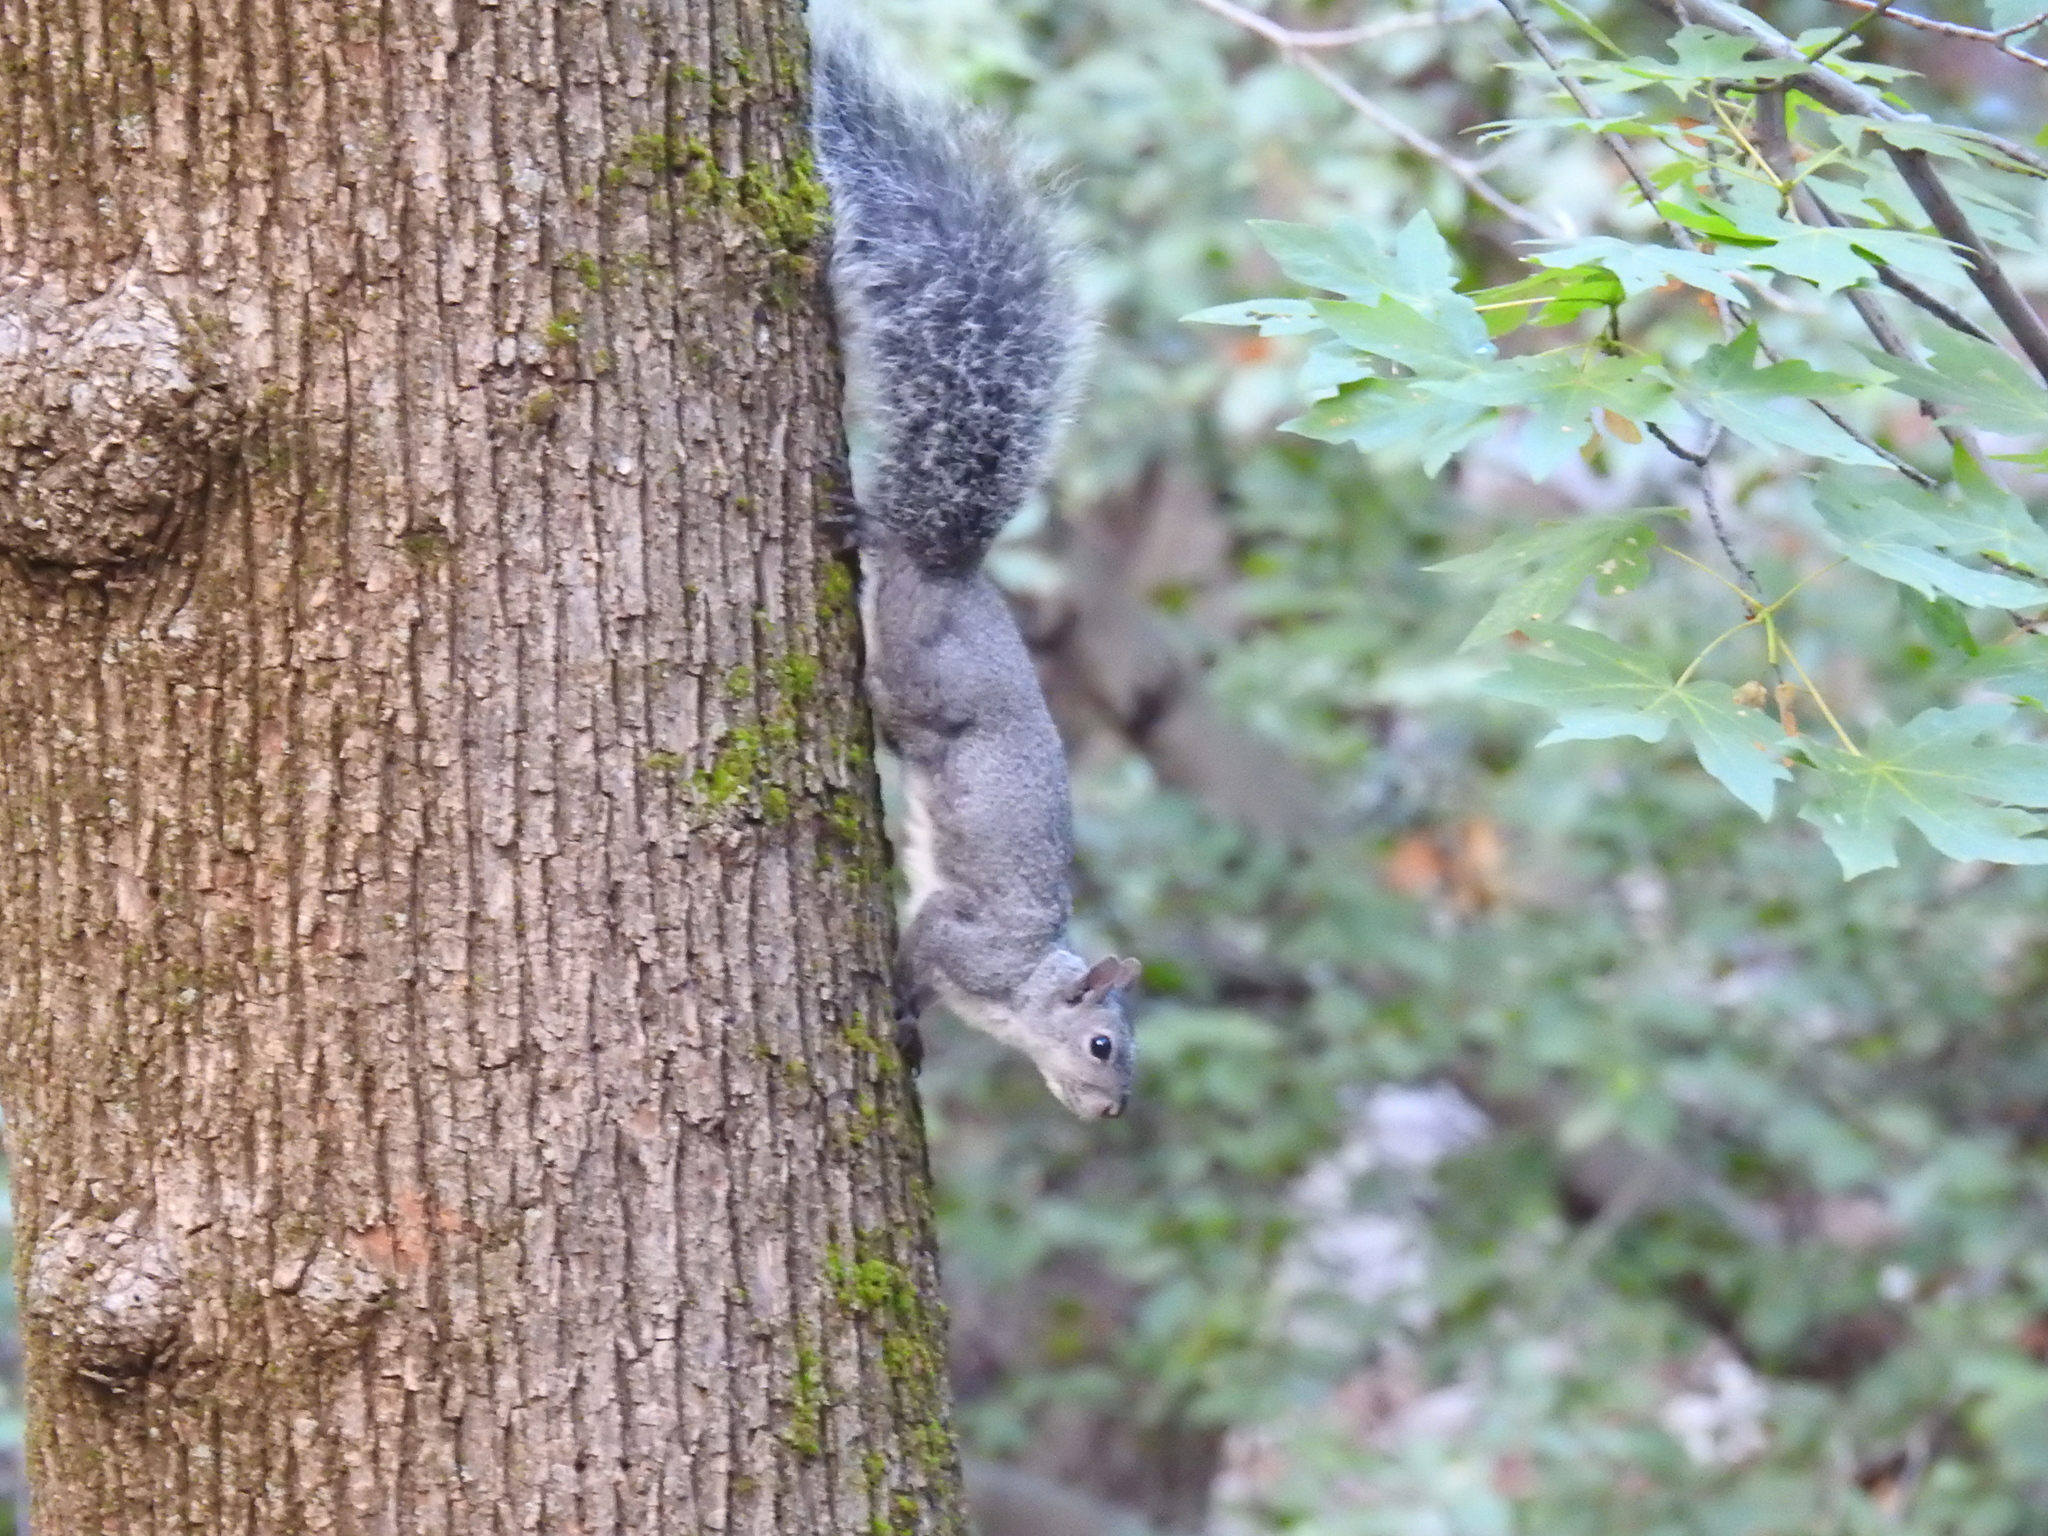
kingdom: Animalia
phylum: Chordata
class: Mammalia
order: Rodentia
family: Sciuridae
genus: Sciurus
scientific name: Sciurus griseus
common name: Western gray squirrel
